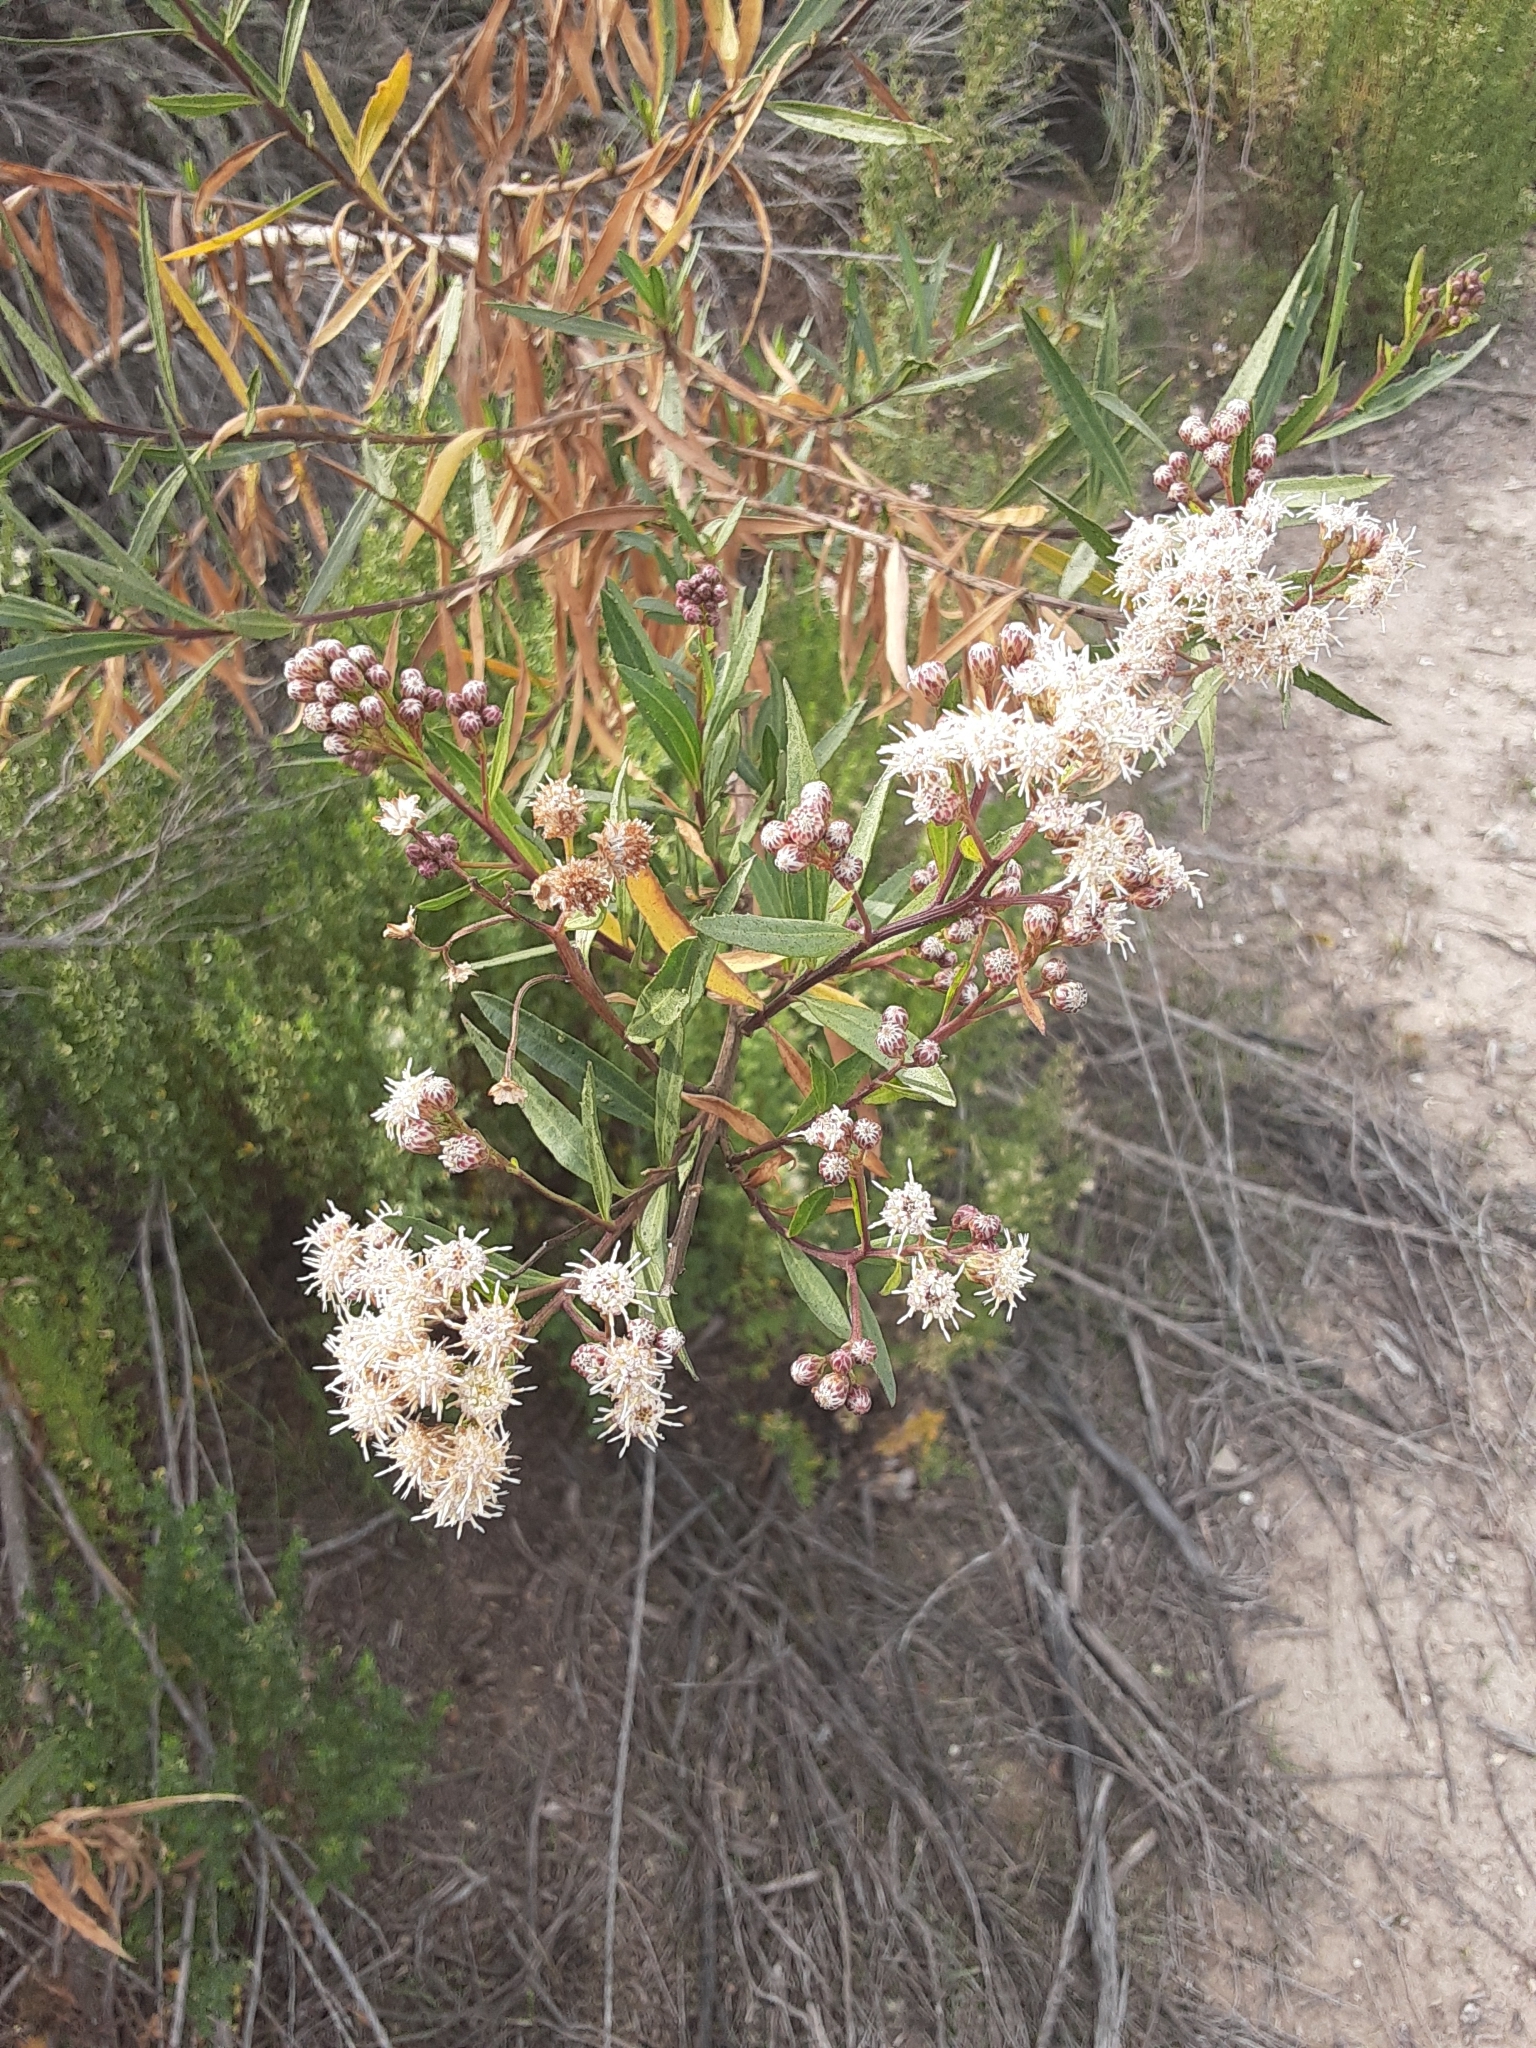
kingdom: Plantae
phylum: Tracheophyta
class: Magnoliopsida
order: Asterales
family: Asteraceae
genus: Baccharis
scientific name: Baccharis salicifolia
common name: Sticky baccharis
